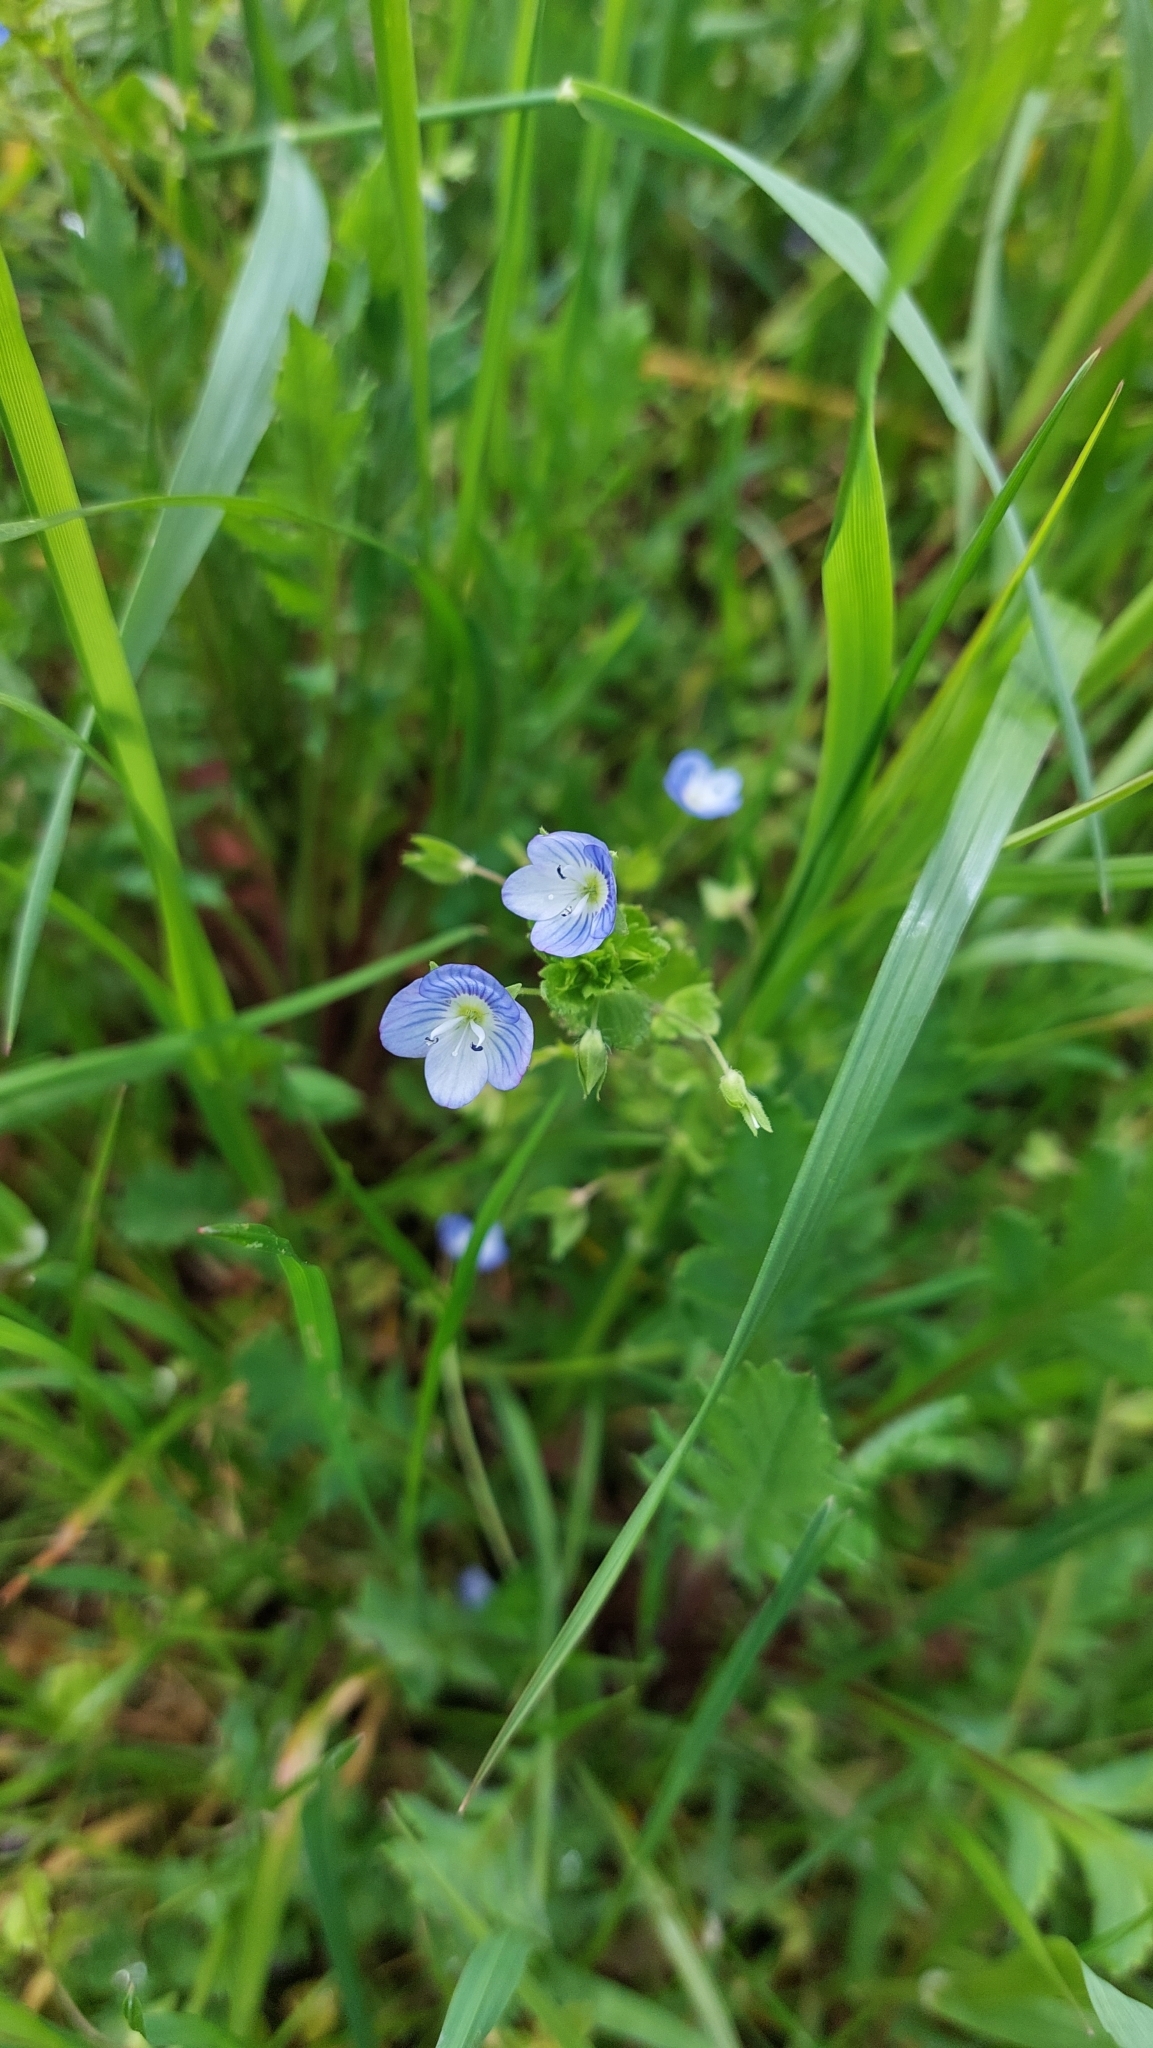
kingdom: Plantae
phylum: Tracheophyta
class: Magnoliopsida
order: Lamiales
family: Plantaginaceae
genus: Veronica
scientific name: Veronica persica
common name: Common field-speedwell
